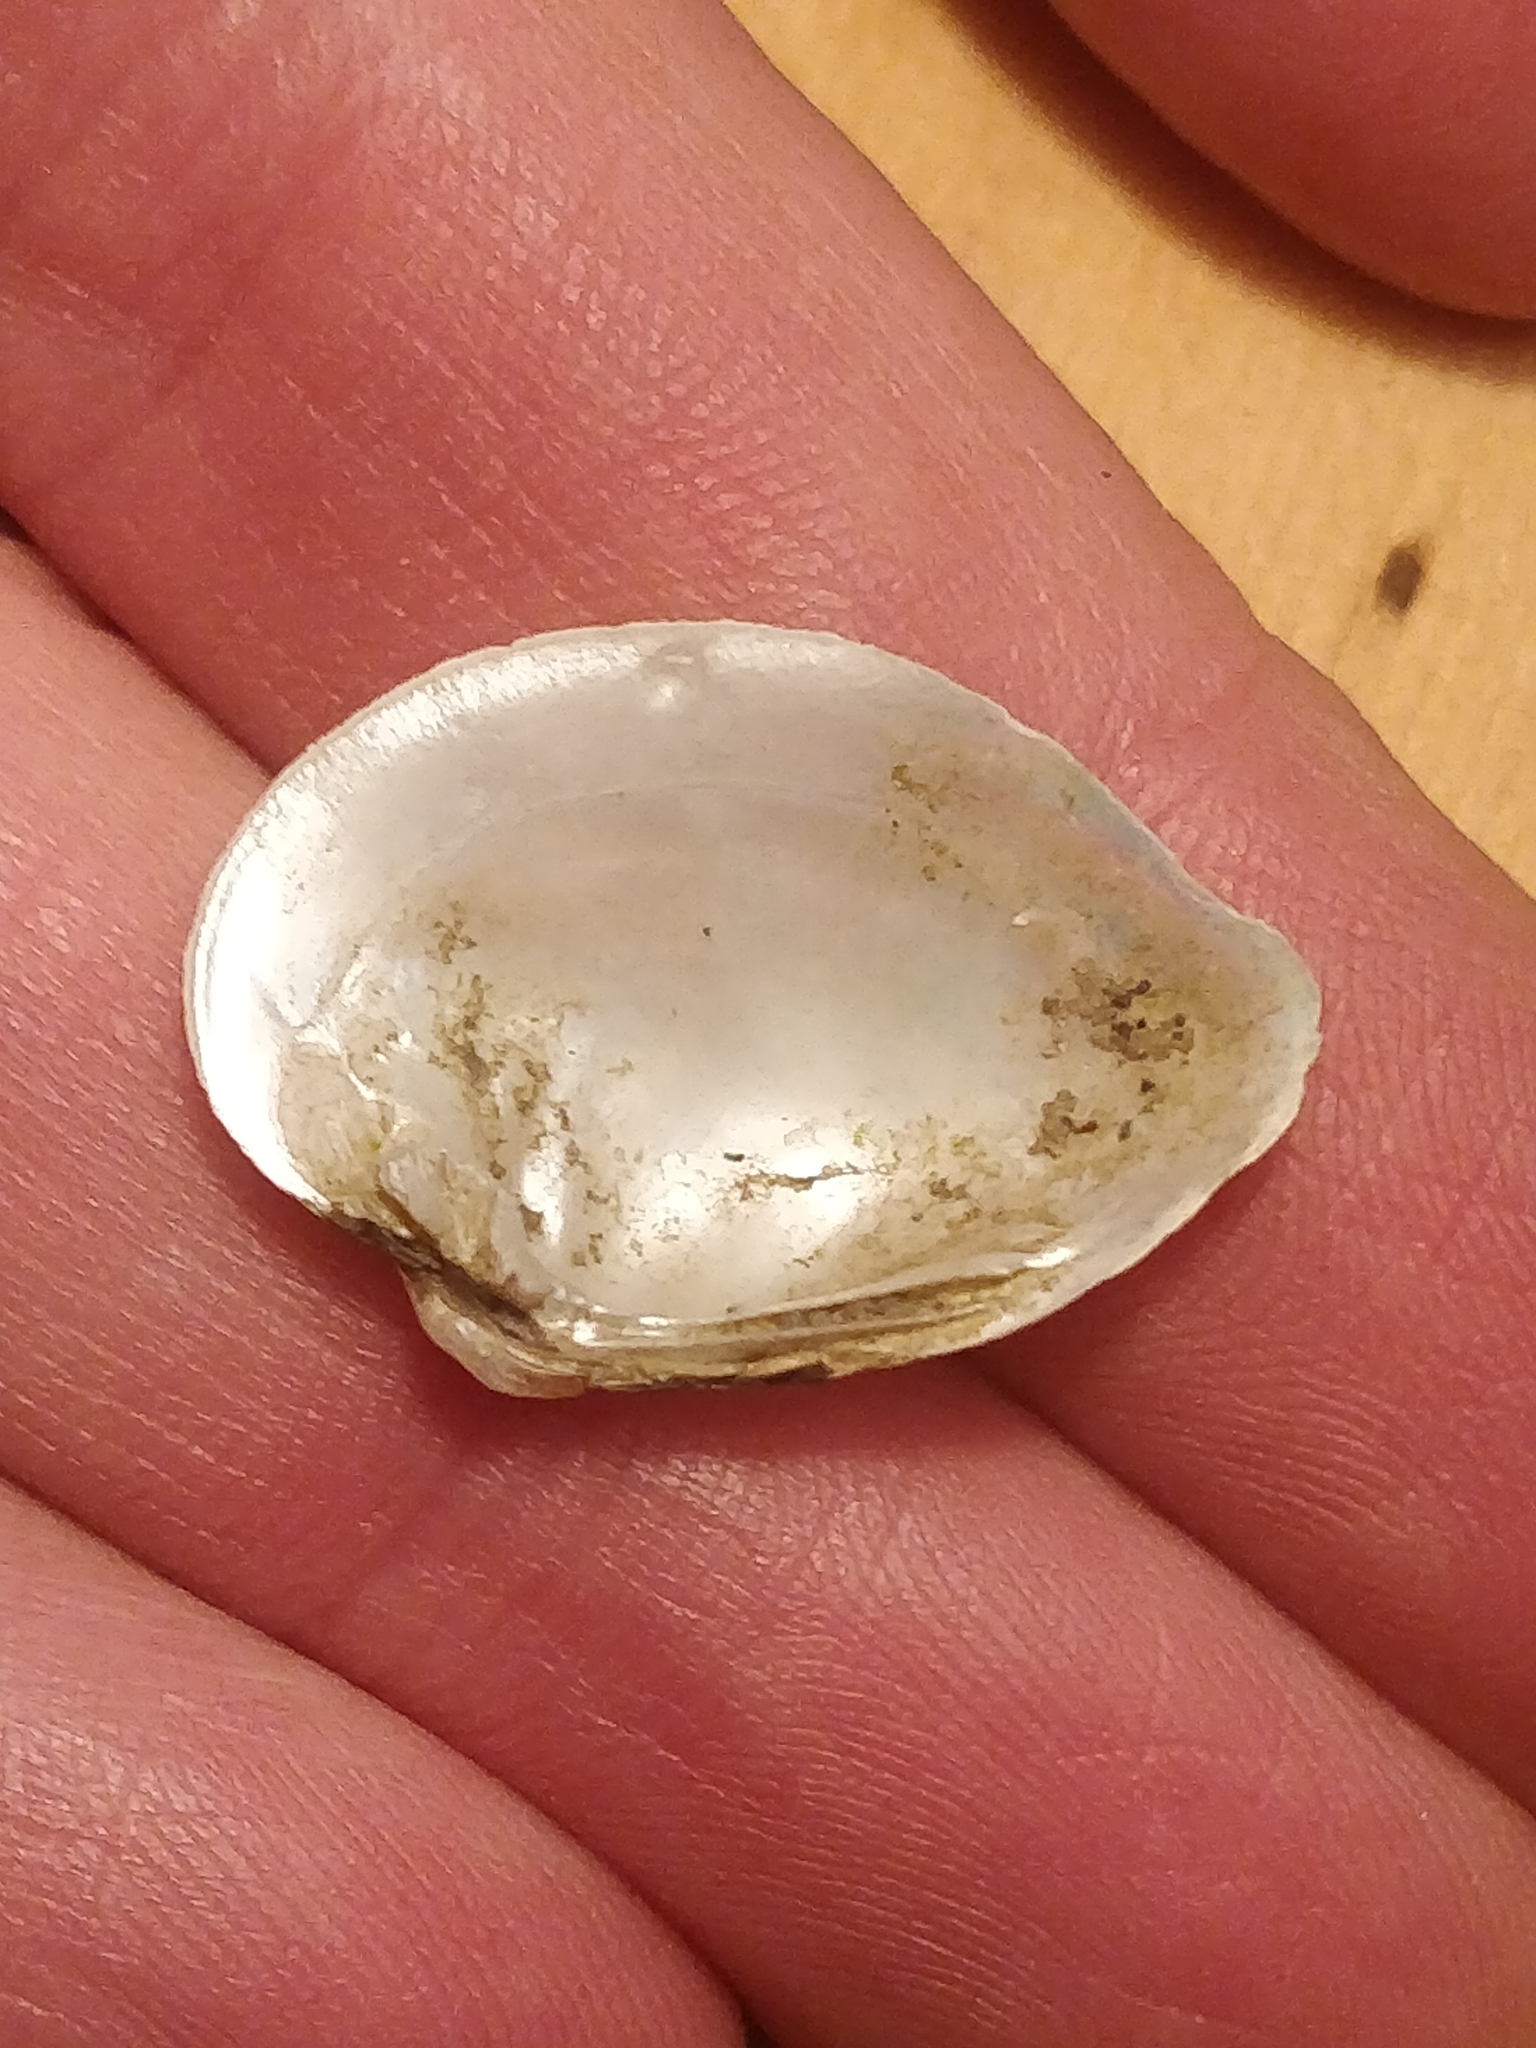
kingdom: Animalia
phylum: Mollusca
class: Bivalvia
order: Unionida
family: Unionidae
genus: Truncilla
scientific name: Truncilla truncata
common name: Deertoe
